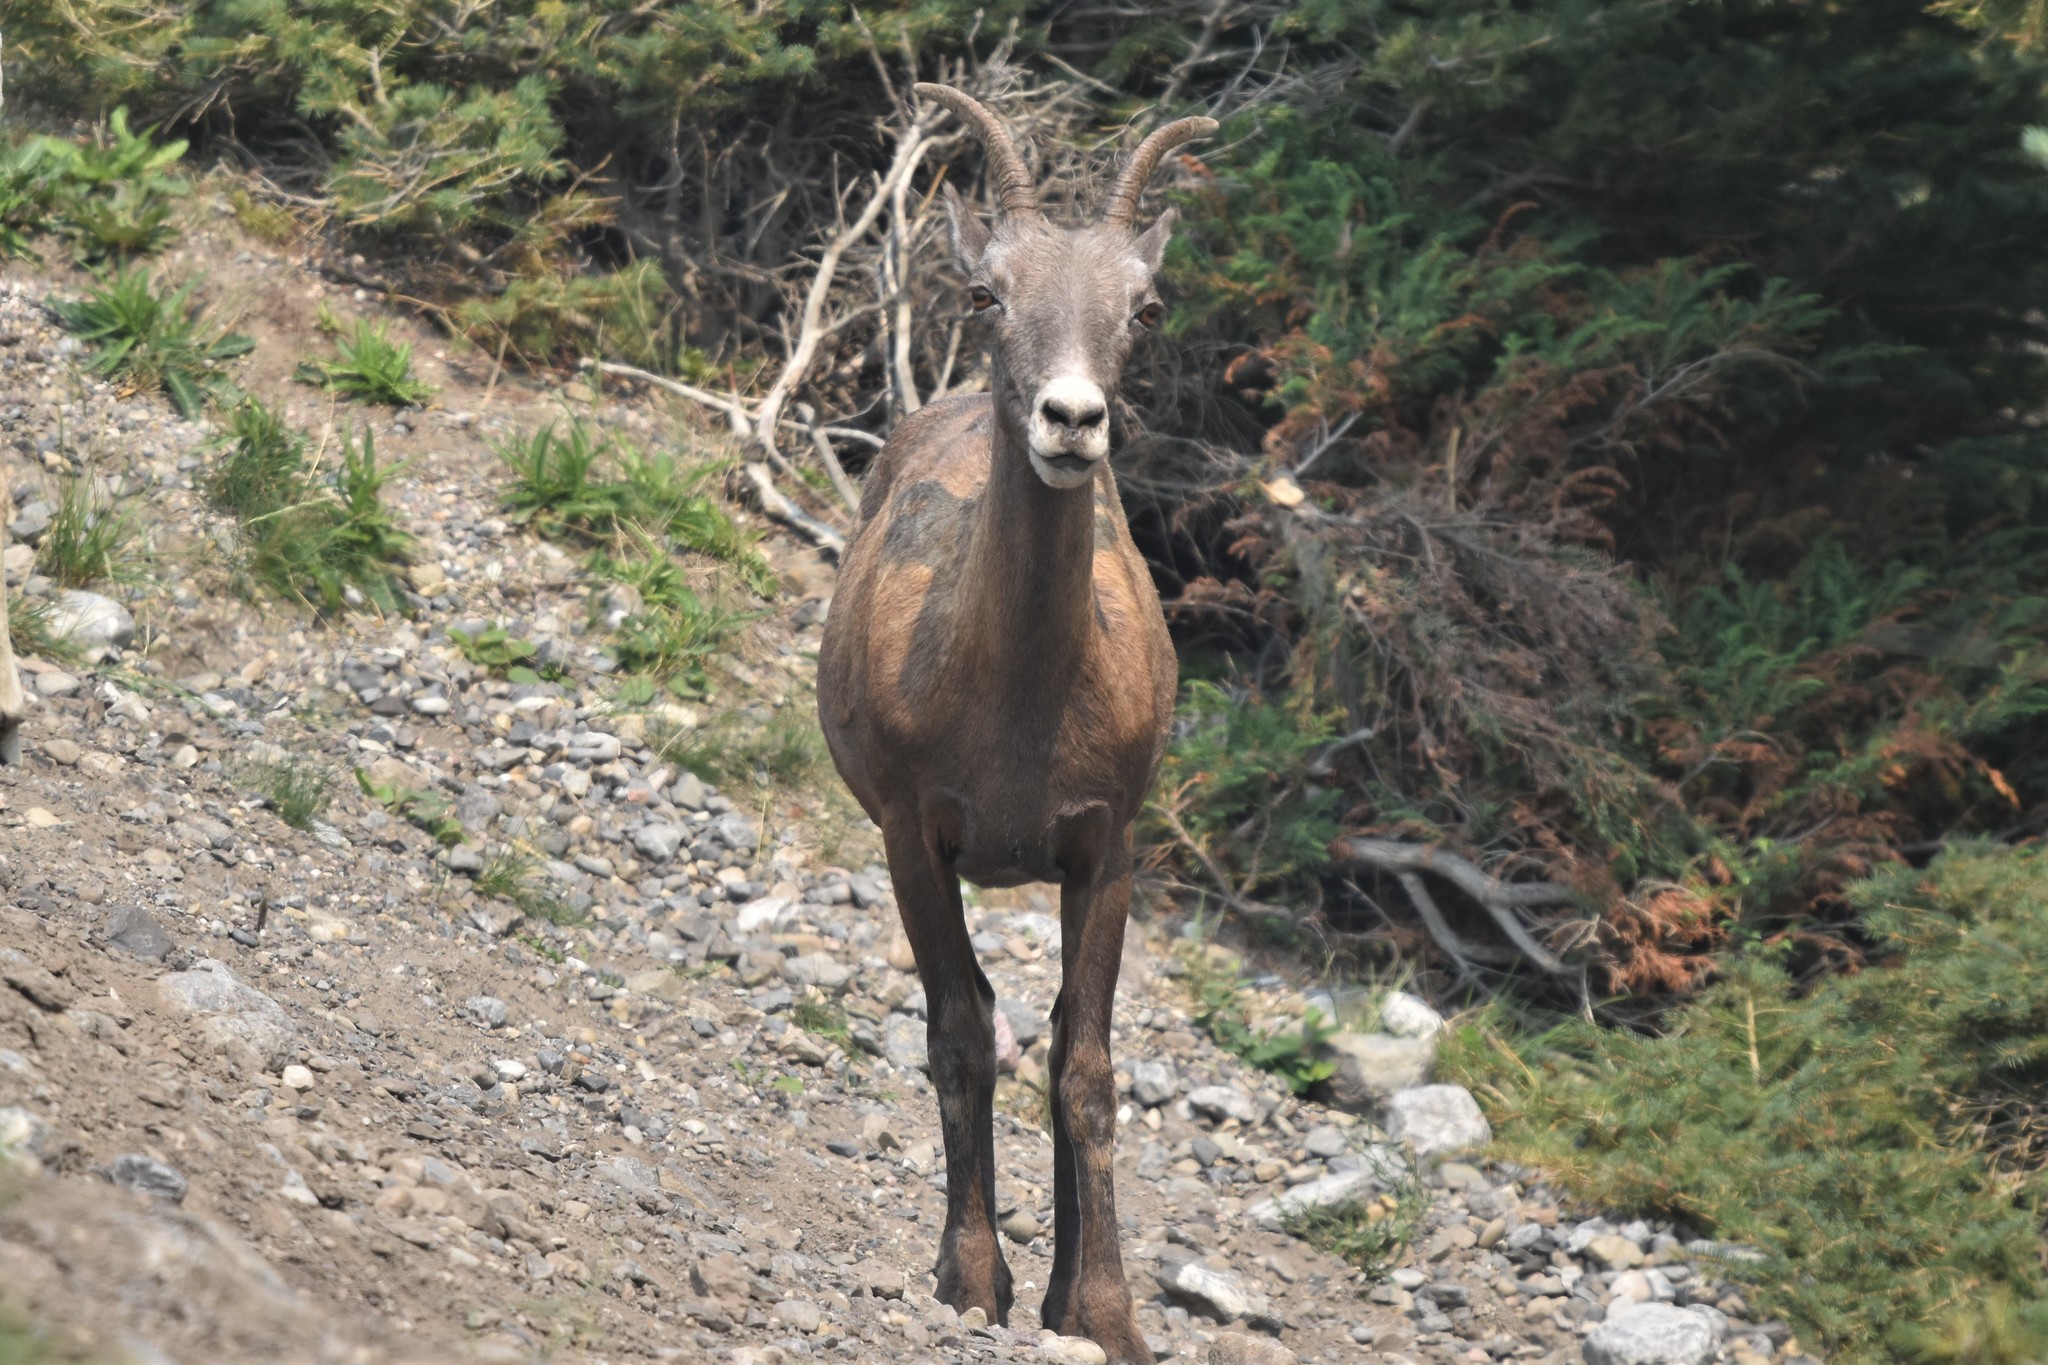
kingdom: Animalia
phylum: Chordata
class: Mammalia
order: Artiodactyla
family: Bovidae
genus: Ovis
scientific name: Ovis canadensis
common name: Bighorn sheep
